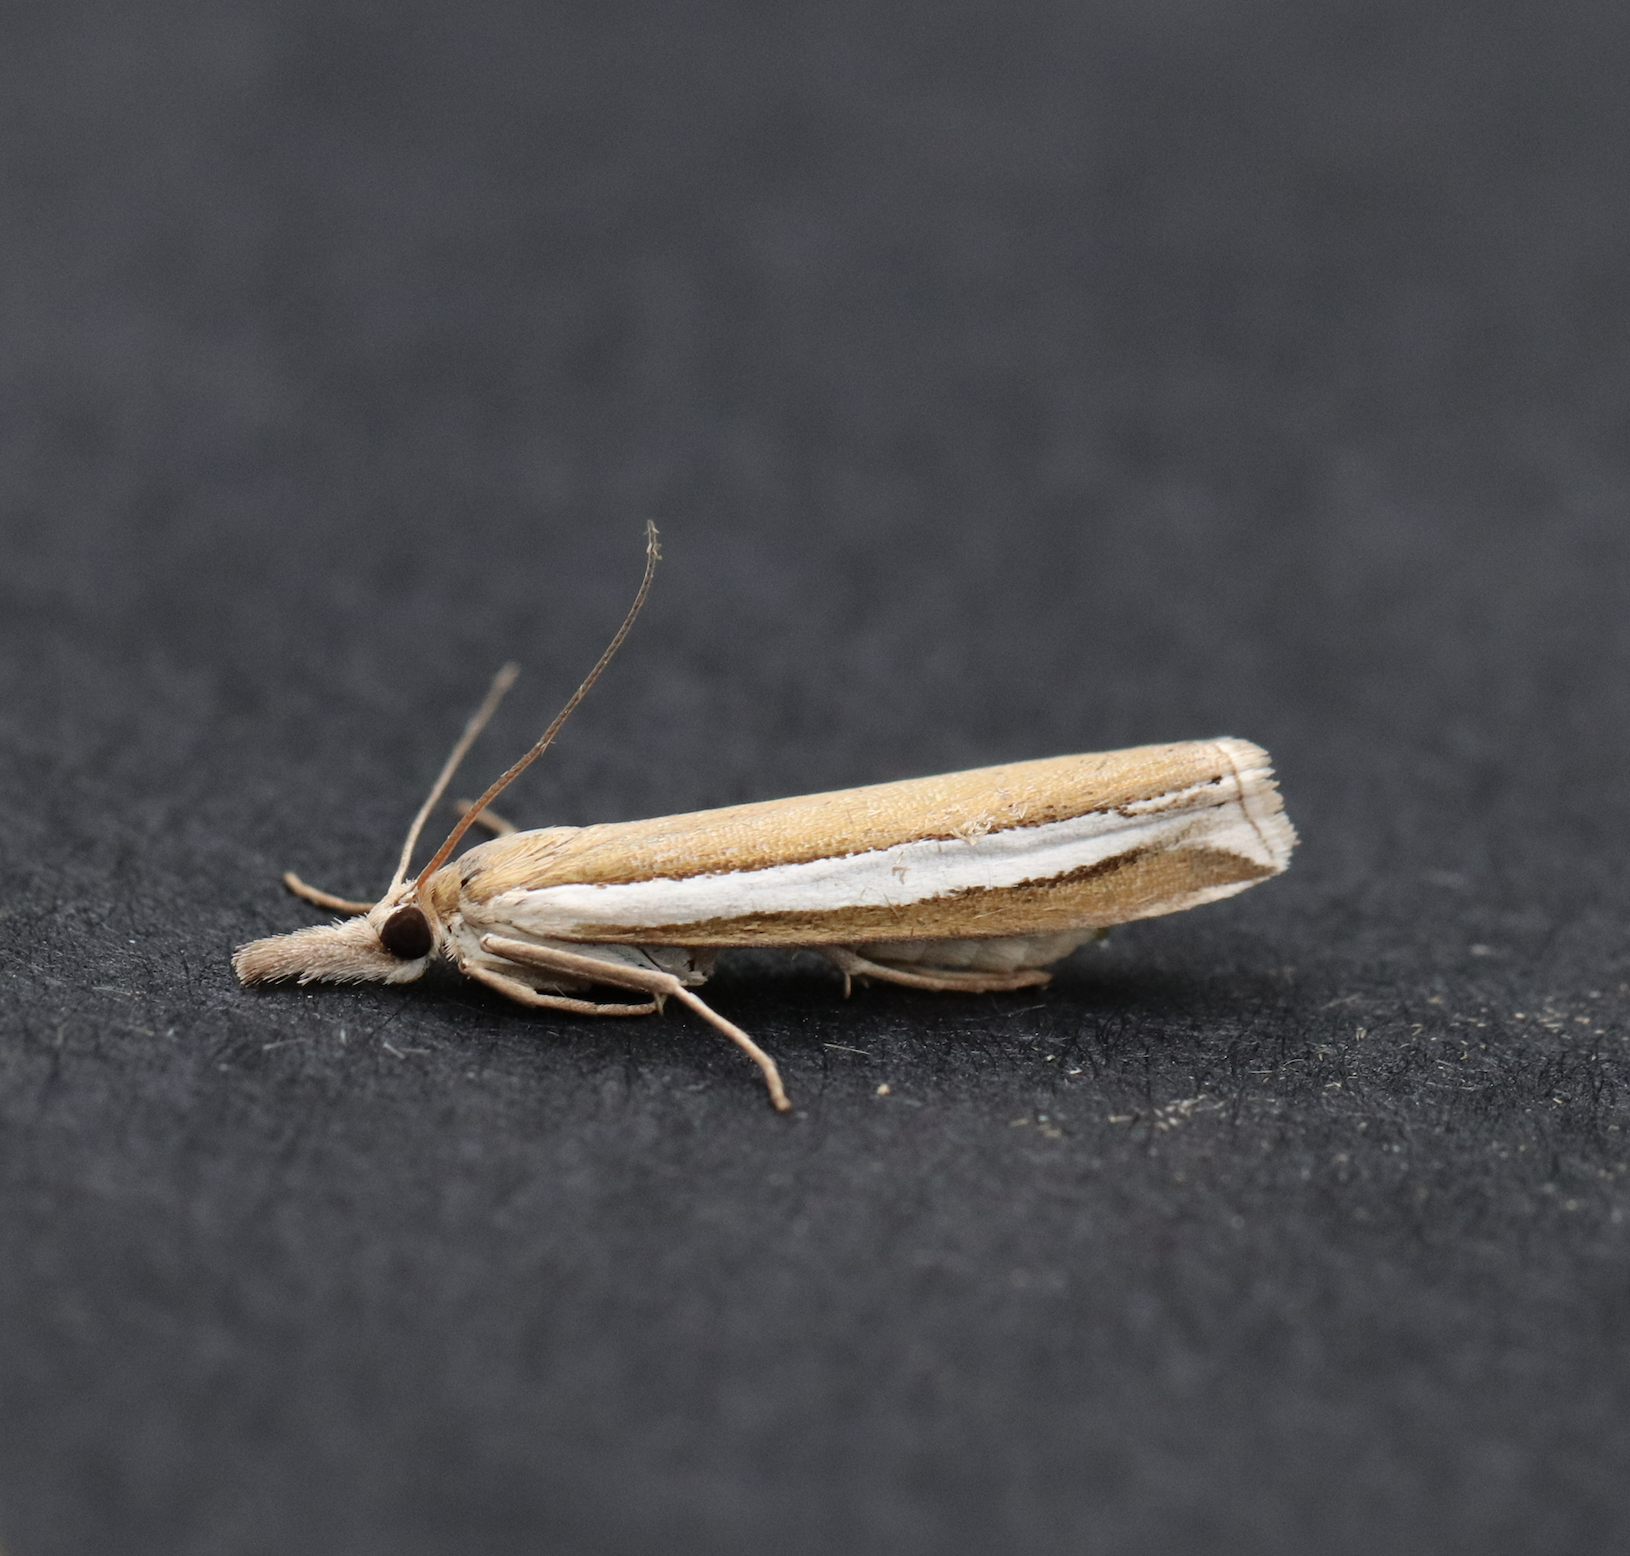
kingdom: Animalia
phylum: Arthropoda
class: Insecta
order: Lepidoptera
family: Crambidae
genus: Crambus
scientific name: Crambus unistriatellus
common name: Wide-stripe grass-veneer moth
